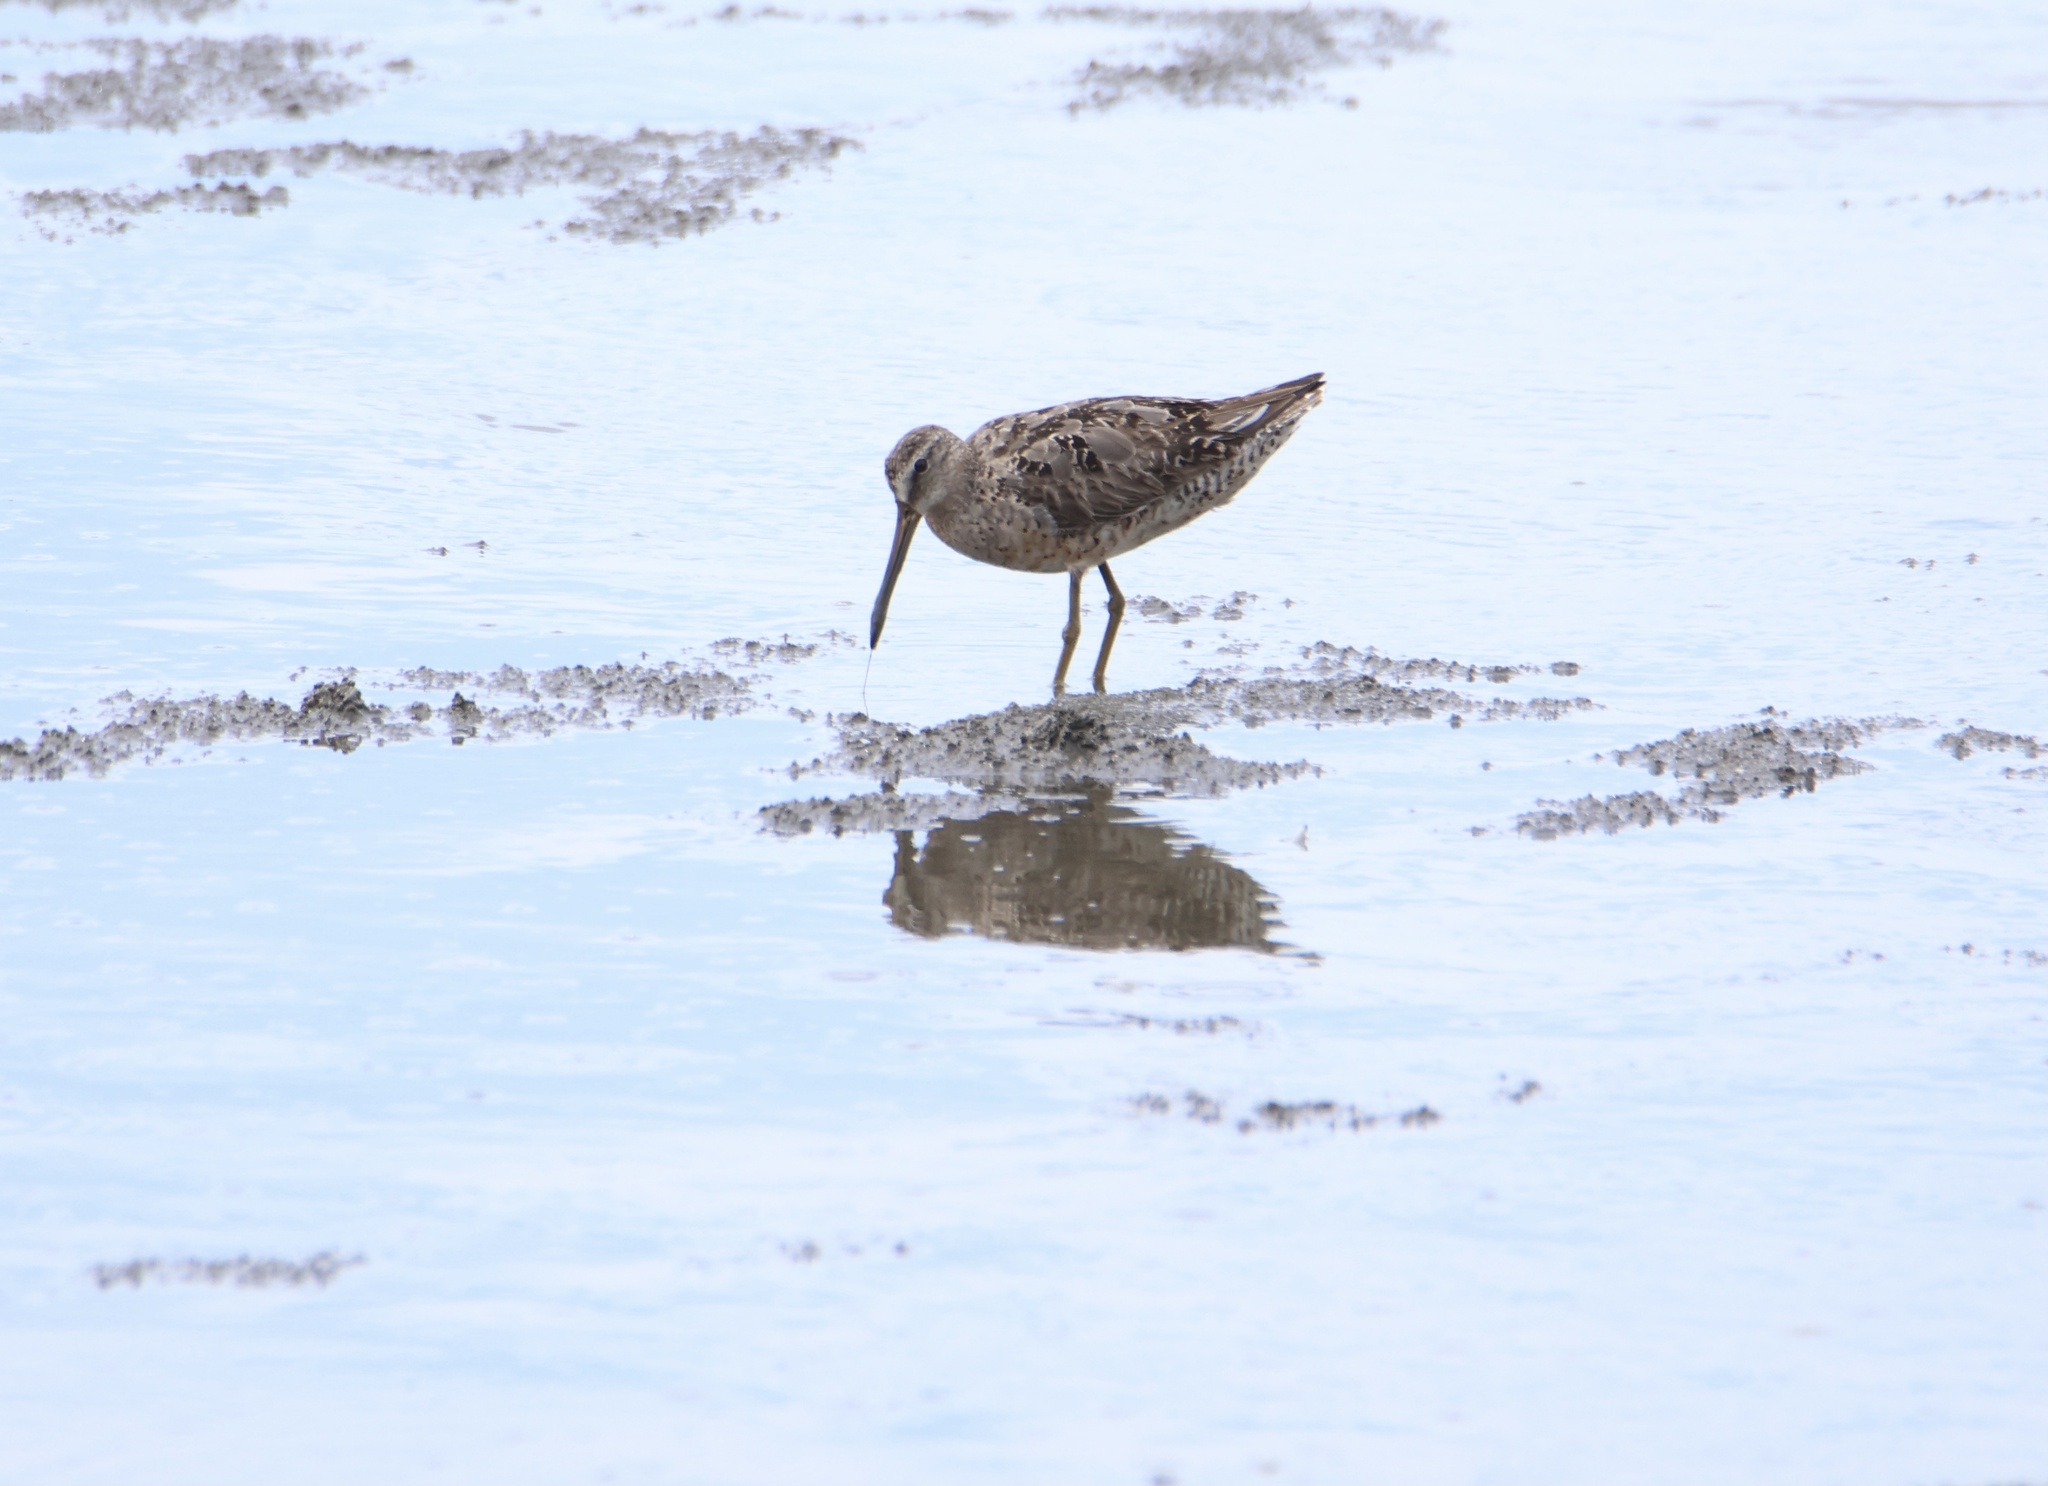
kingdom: Animalia
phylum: Chordata
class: Aves
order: Charadriiformes
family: Scolopacidae
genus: Limnodromus
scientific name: Limnodromus griseus
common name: Short-billed dowitcher
